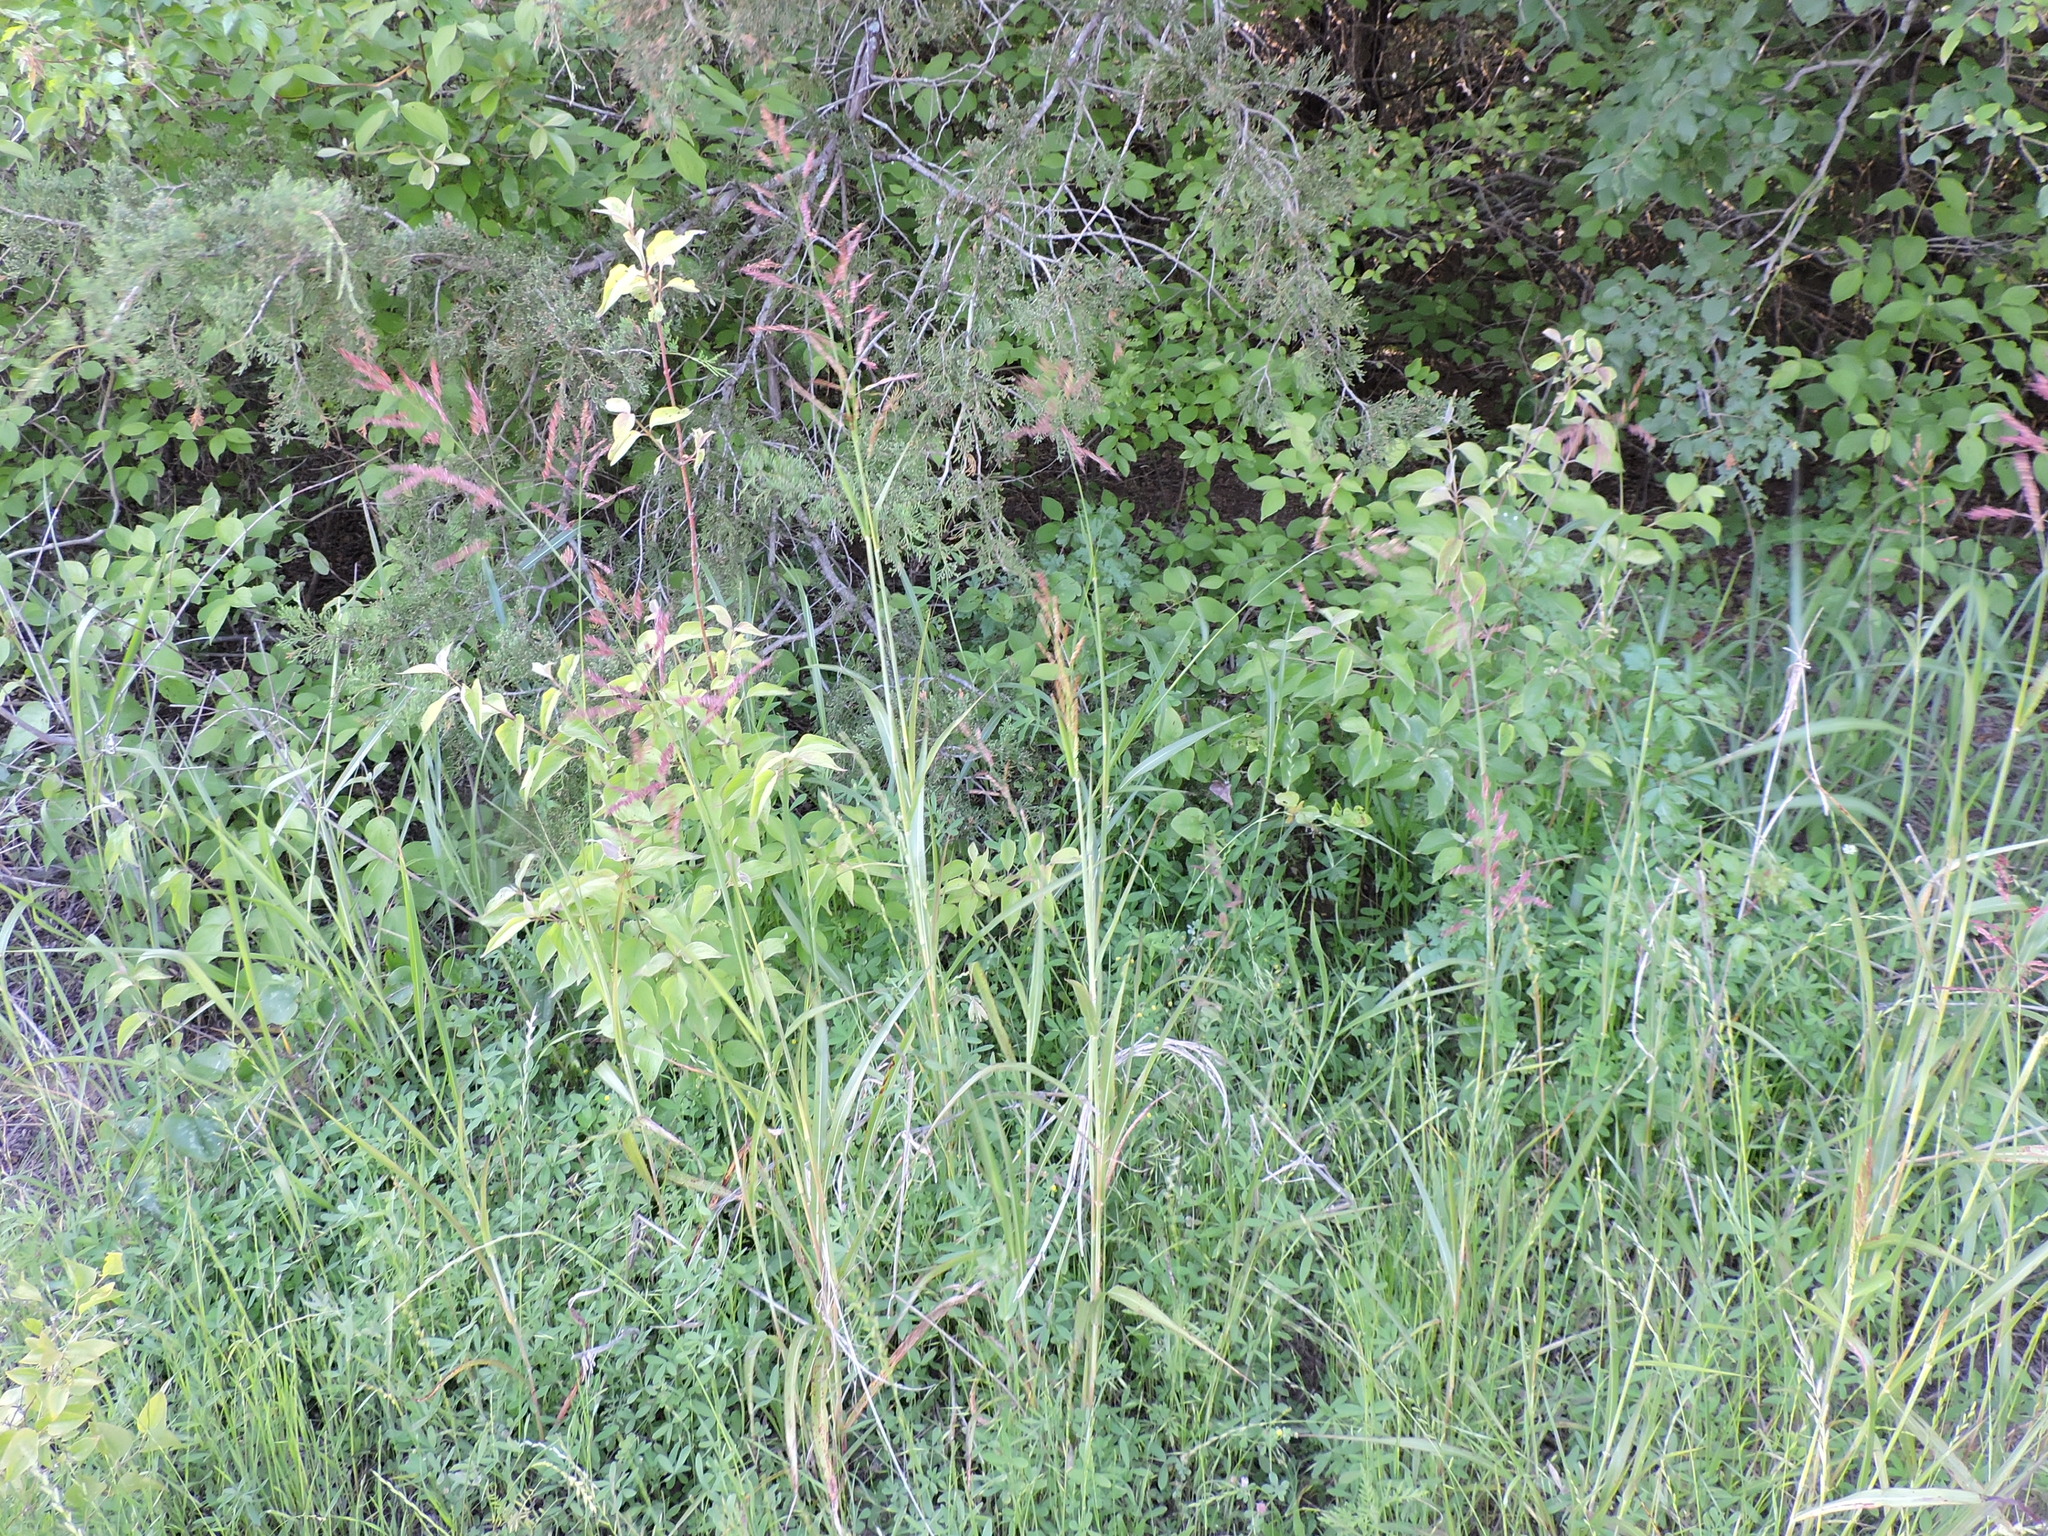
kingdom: Plantae
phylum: Tracheophyta
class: Liliopsida
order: Poales
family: Poaceae
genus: Sorghum
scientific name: Sorghum halepense
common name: Johnson-grass
